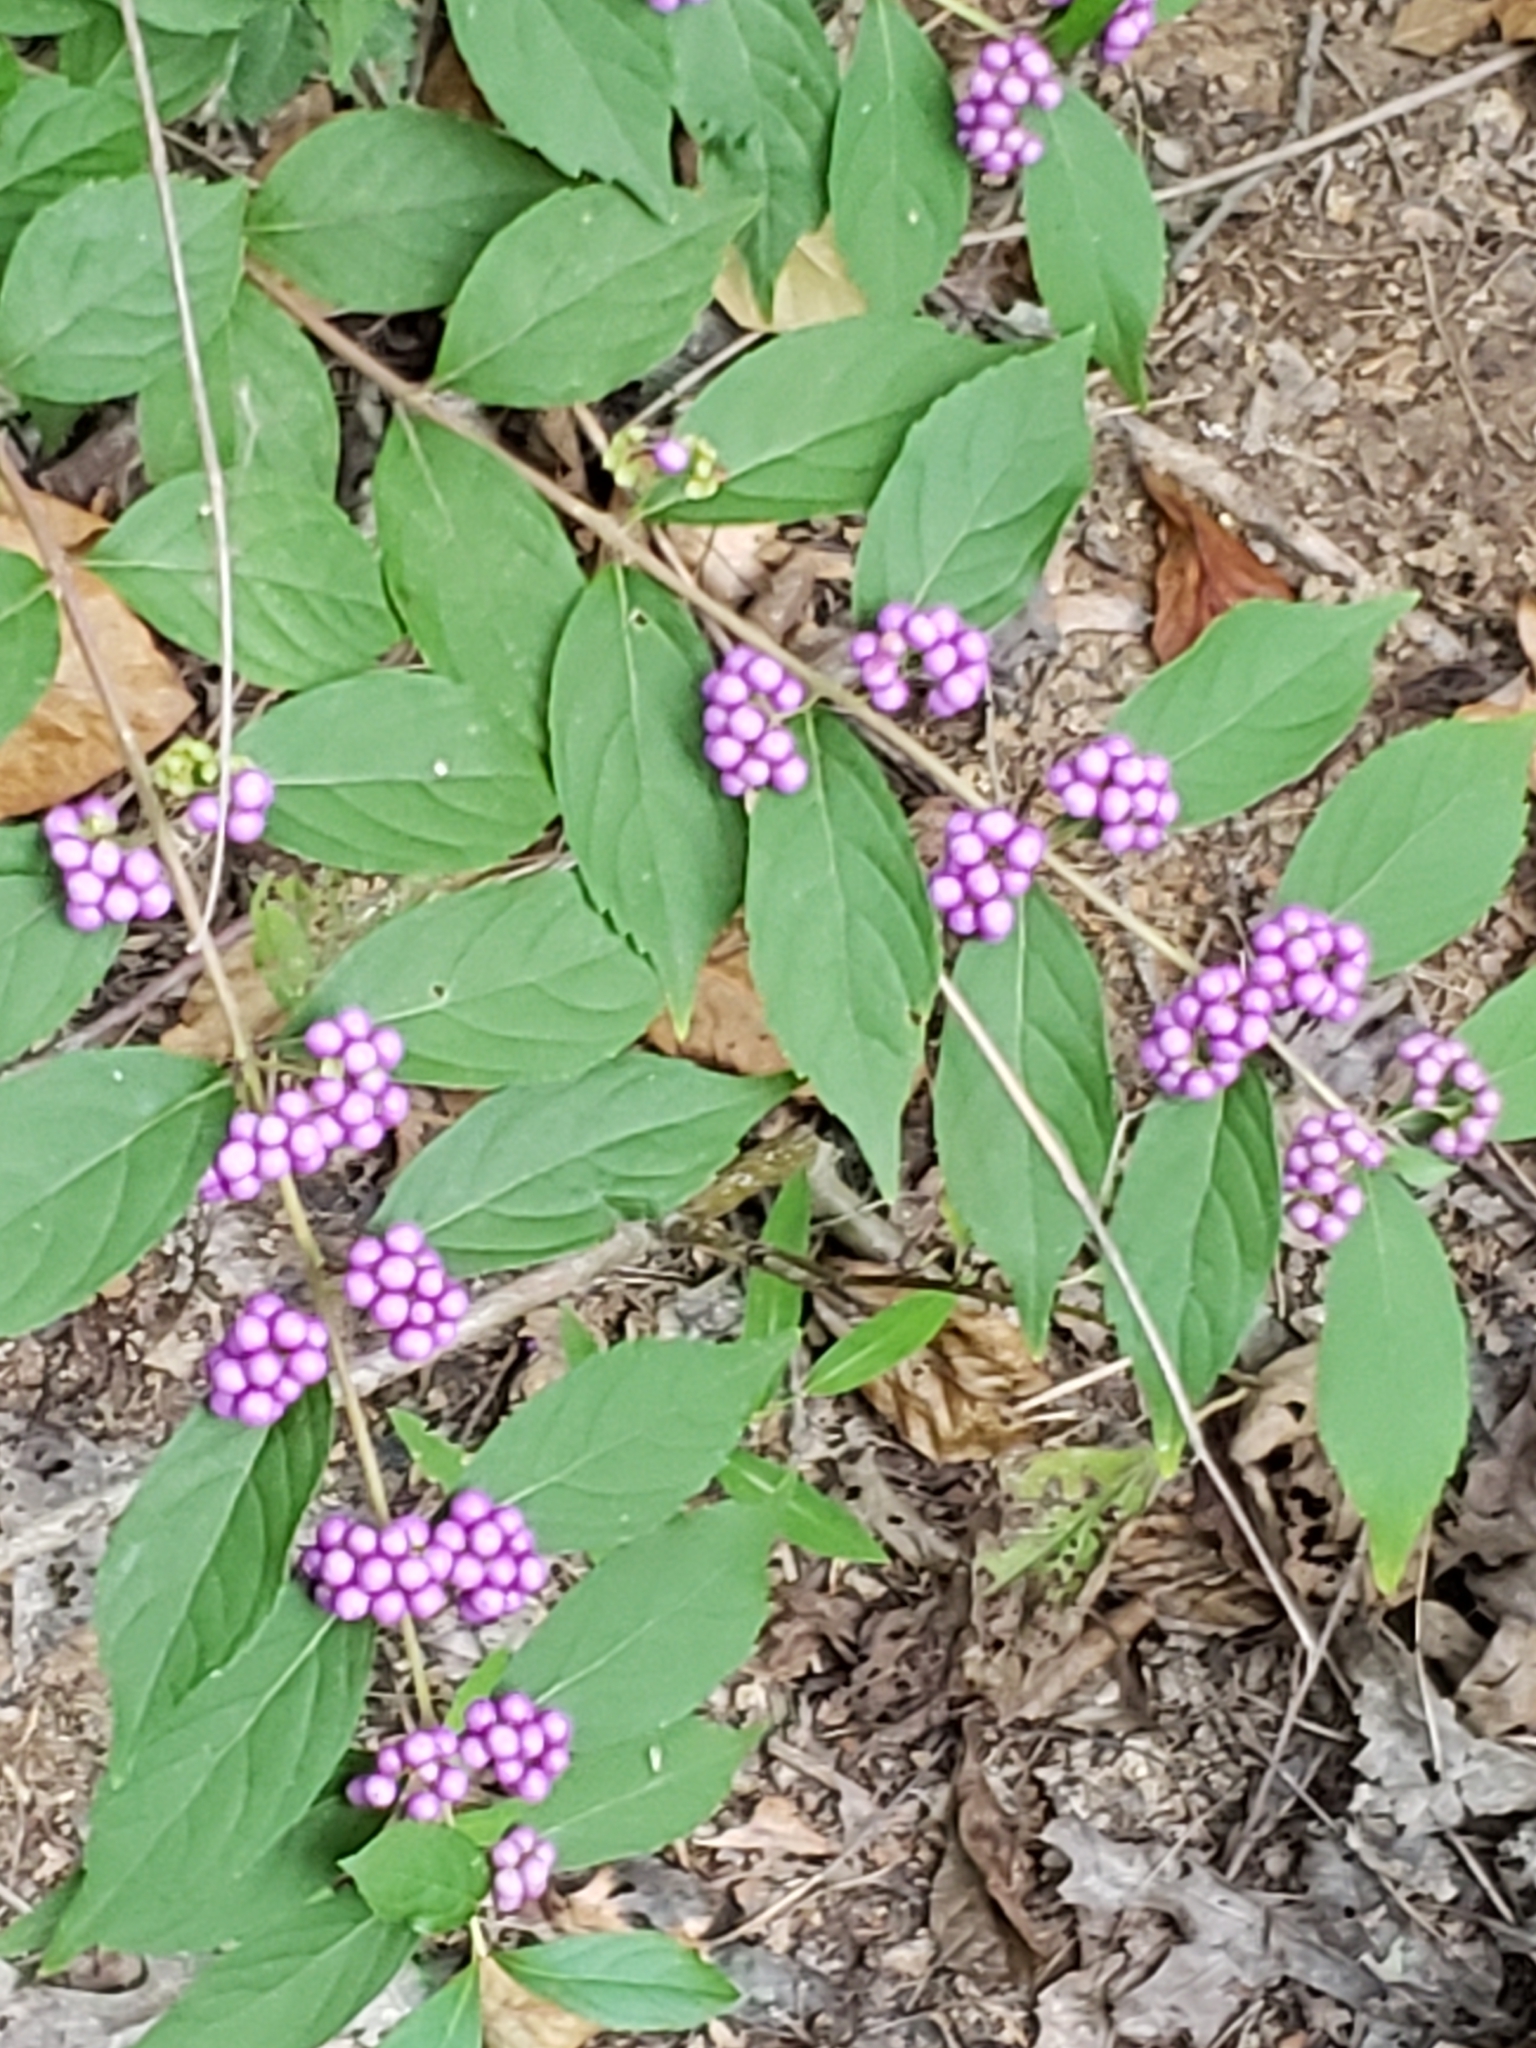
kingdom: Plantae
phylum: Tracheophyta
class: Magnoliopsida
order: Lamiales
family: Lamiaceae
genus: Callicarpa
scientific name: Callicarpa dichotoma
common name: Purple beauty-berry
